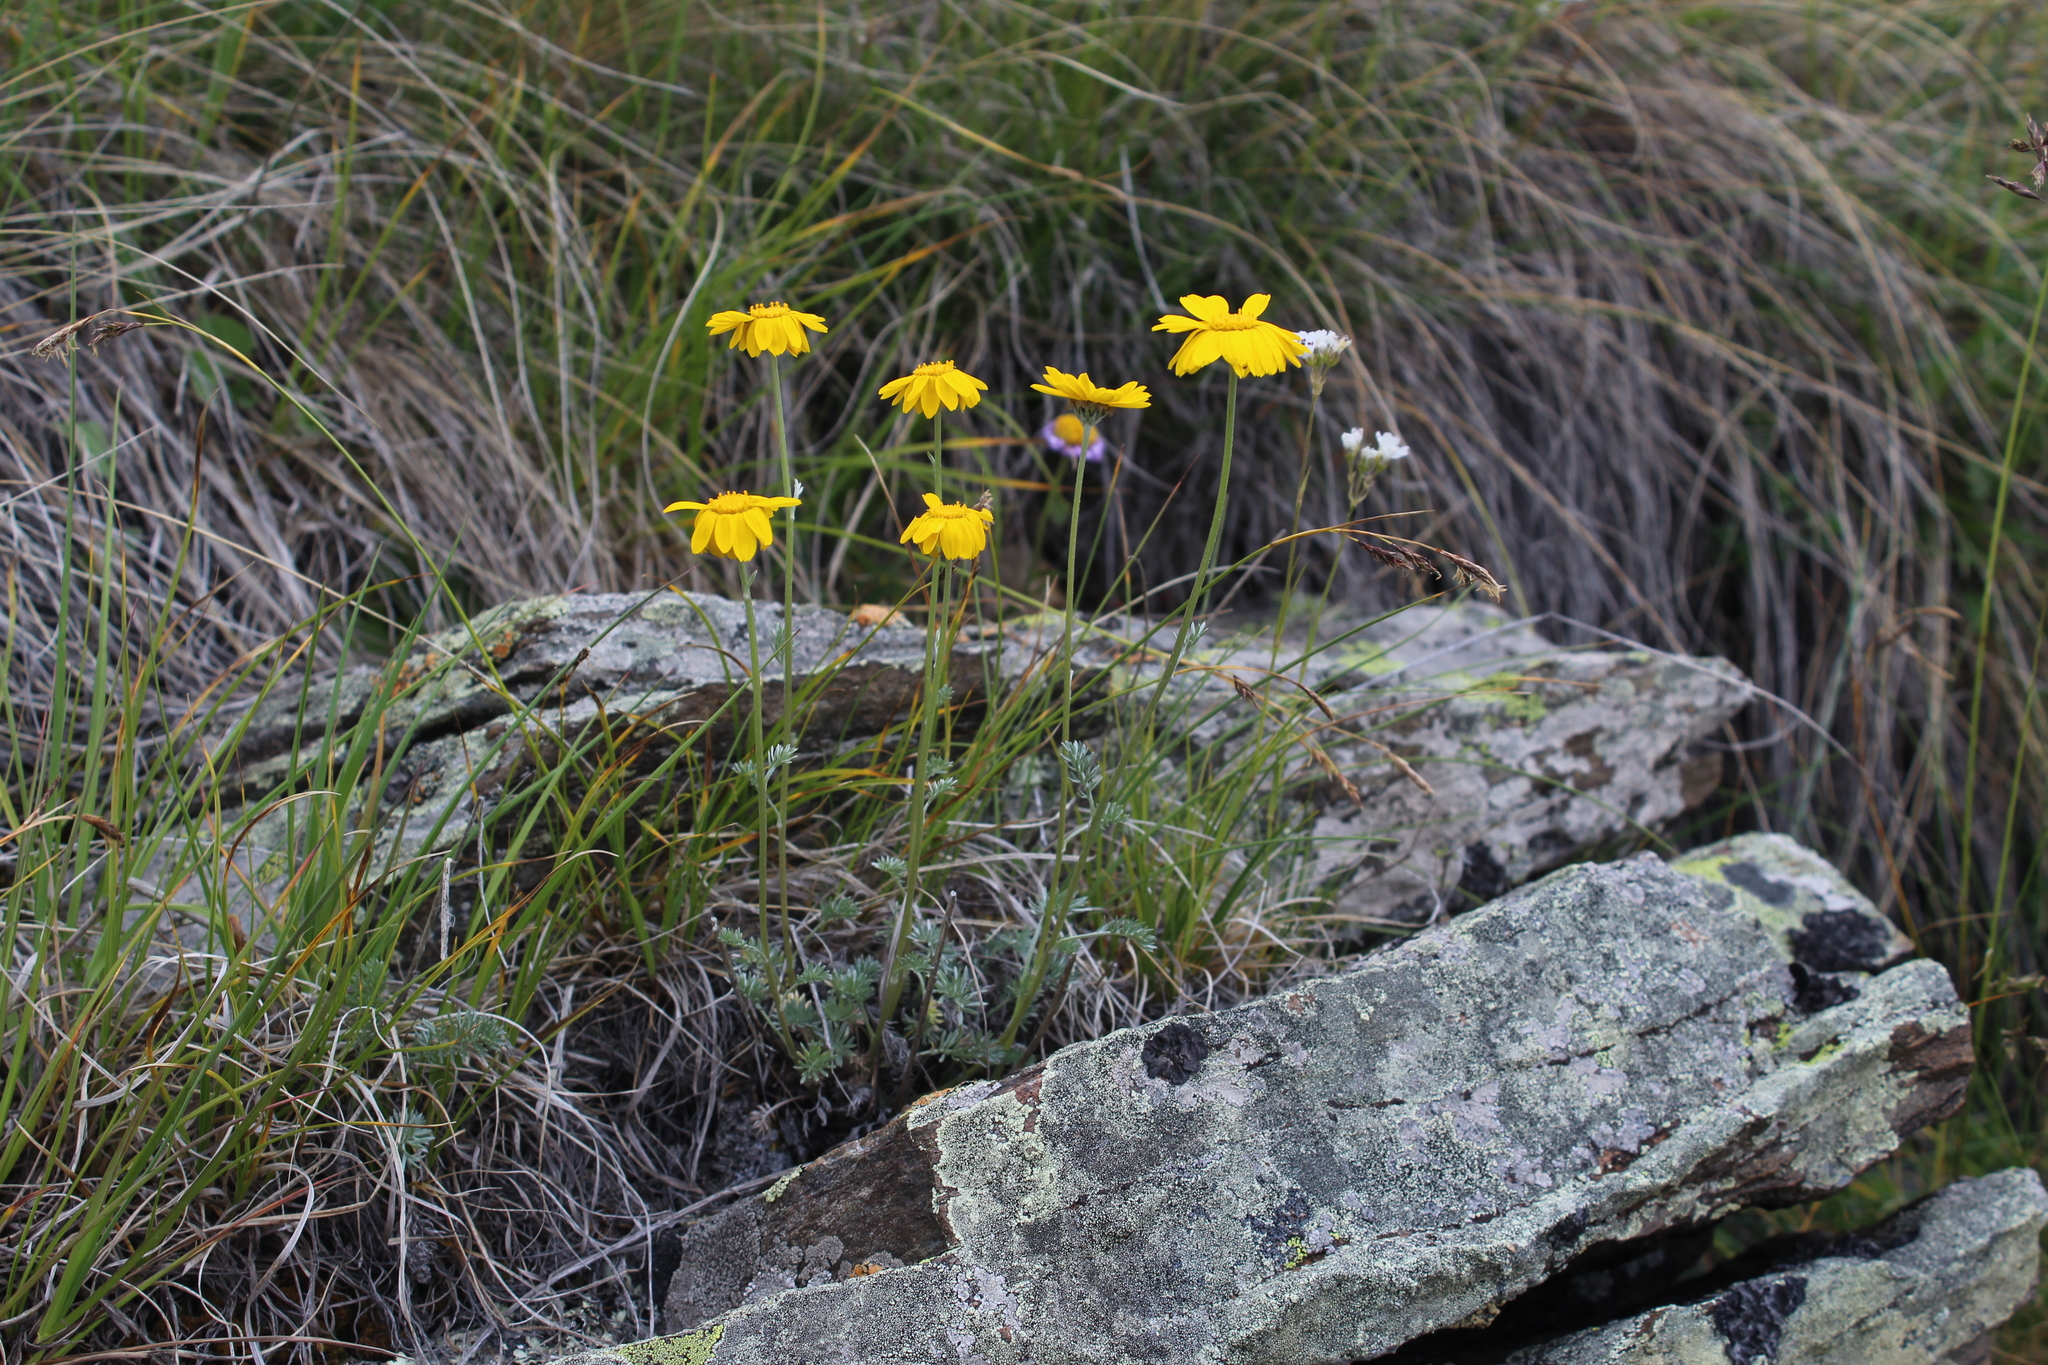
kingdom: Plantae
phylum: Tracheophyta
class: Magnoliopsida
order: Asterales
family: Asteraceae
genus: Archanthemis
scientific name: Archanthemis marschalliana
